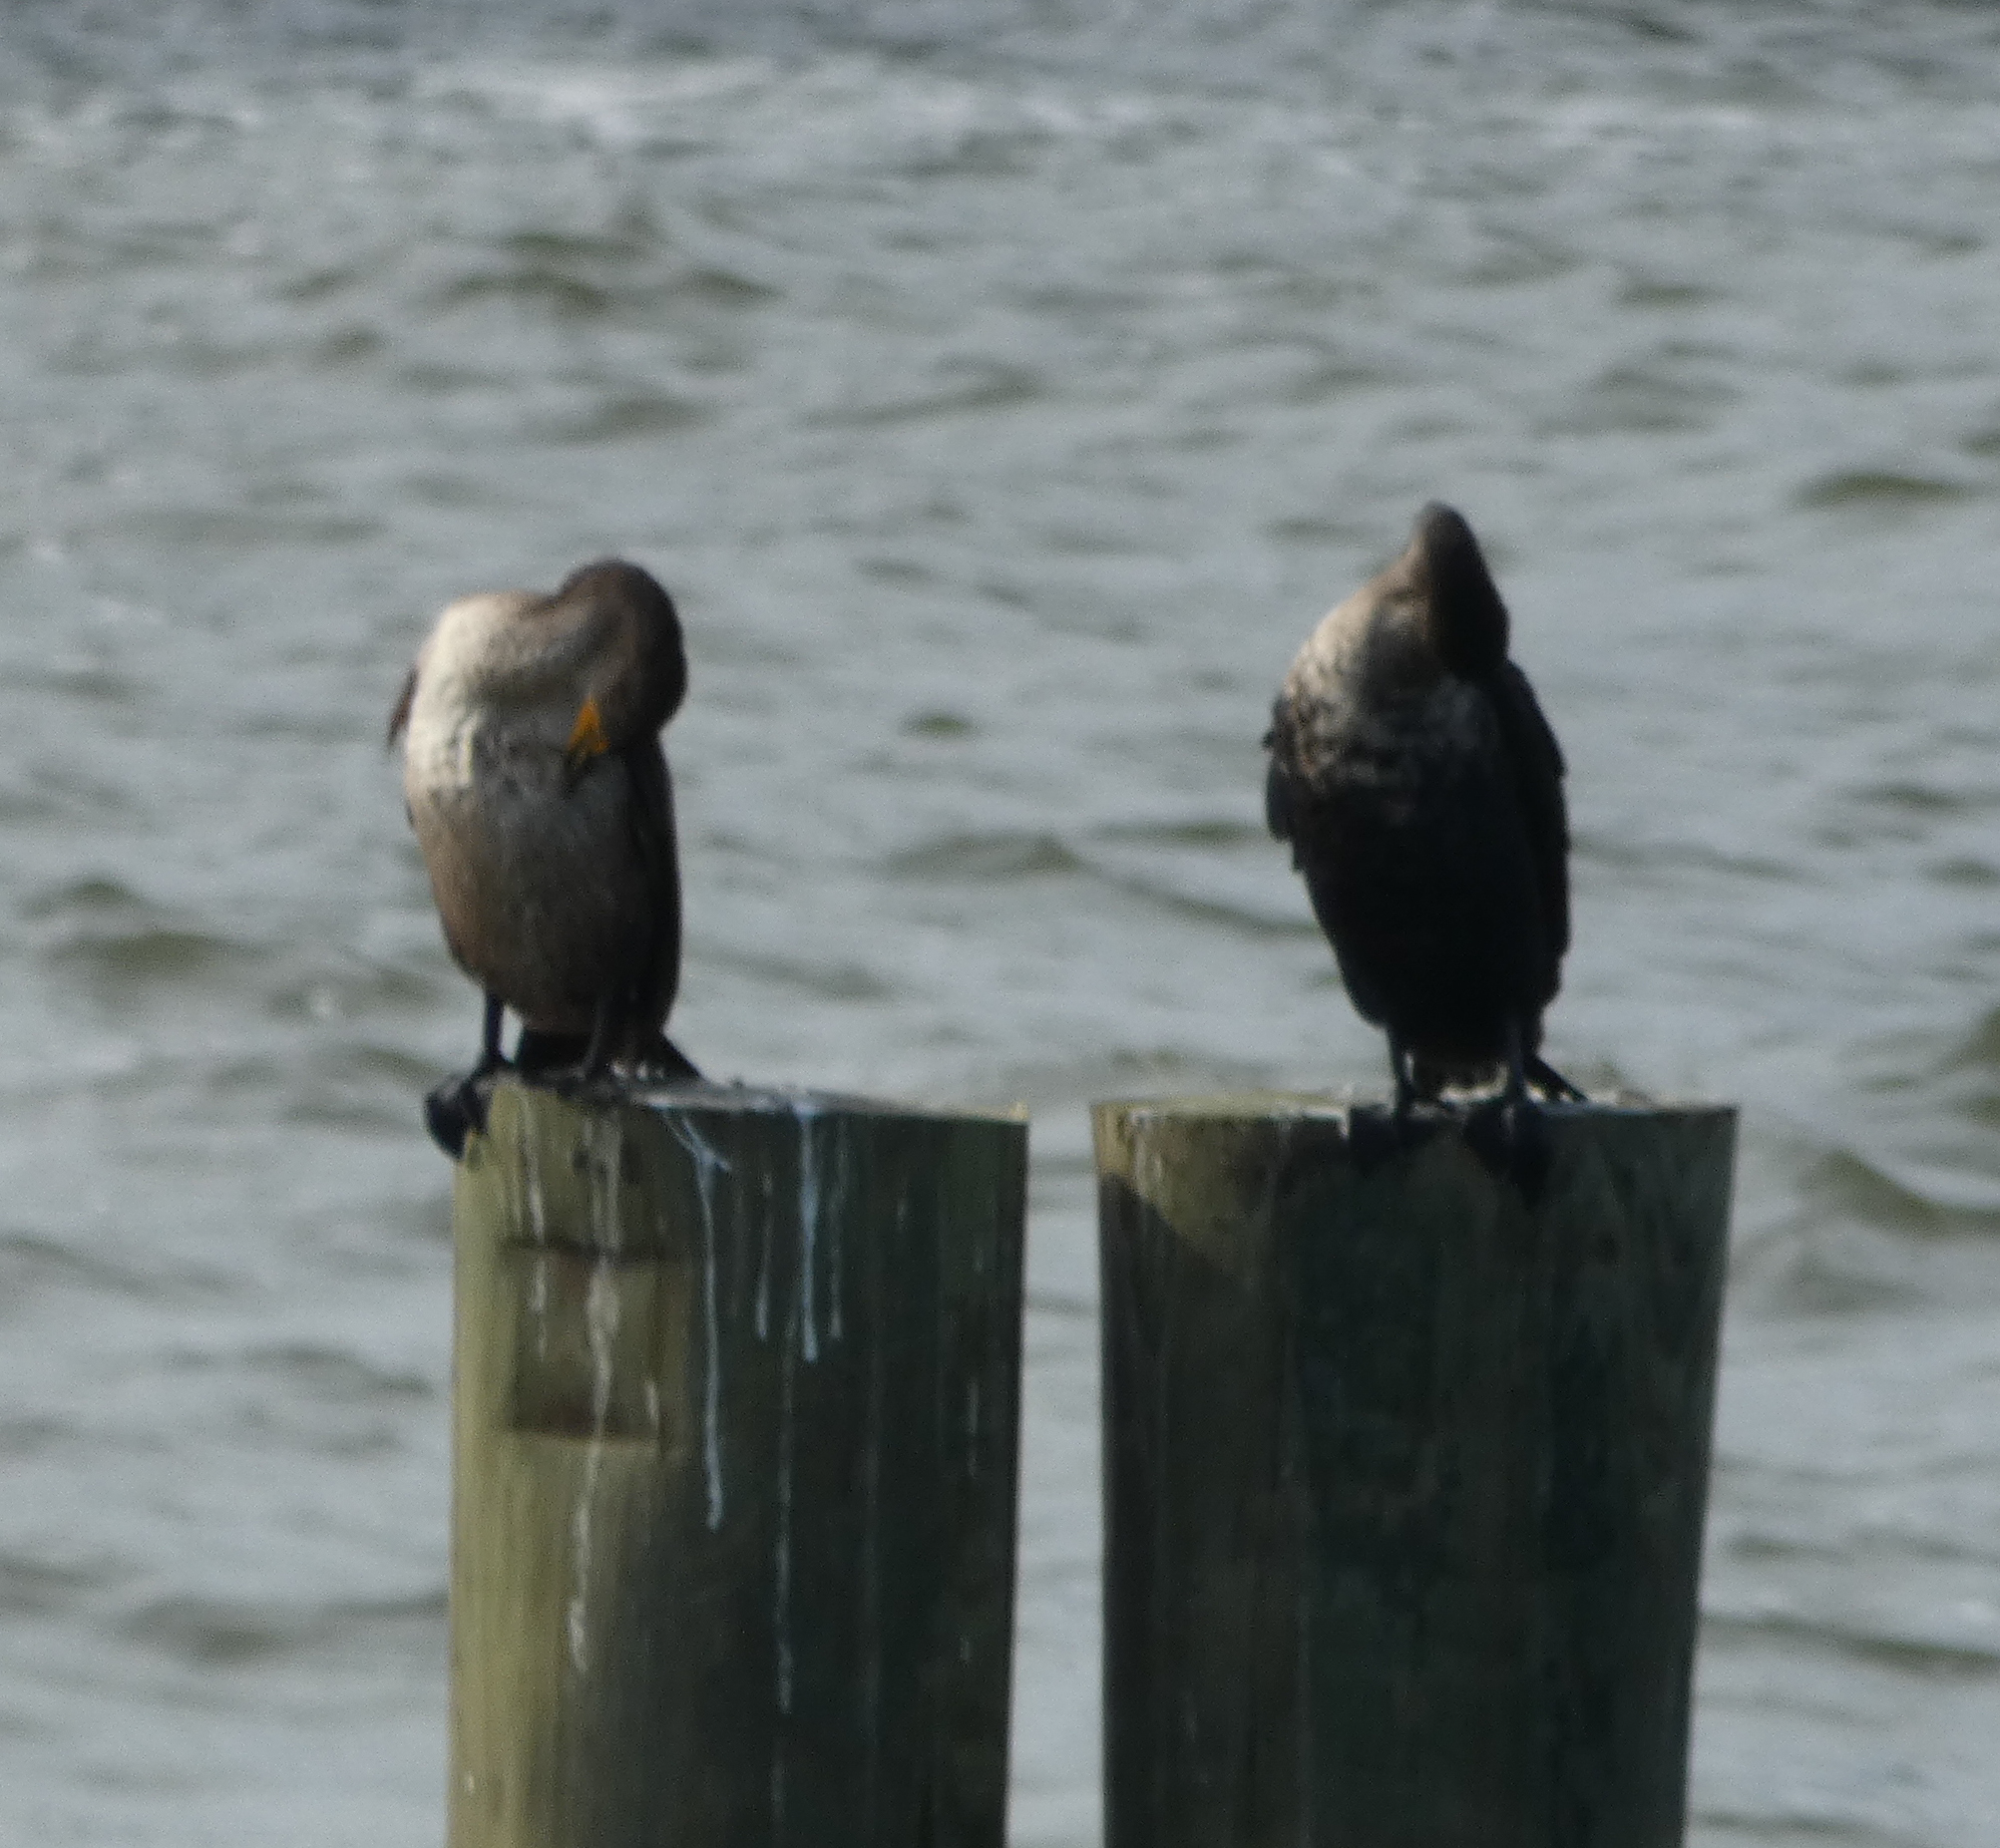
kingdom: Animalia
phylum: Chordata
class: Aves
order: Suliformes
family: Phalacrocoracidae
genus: Phalacrocorax
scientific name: Phalacrocorax auritus
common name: Double-crested cormorant
